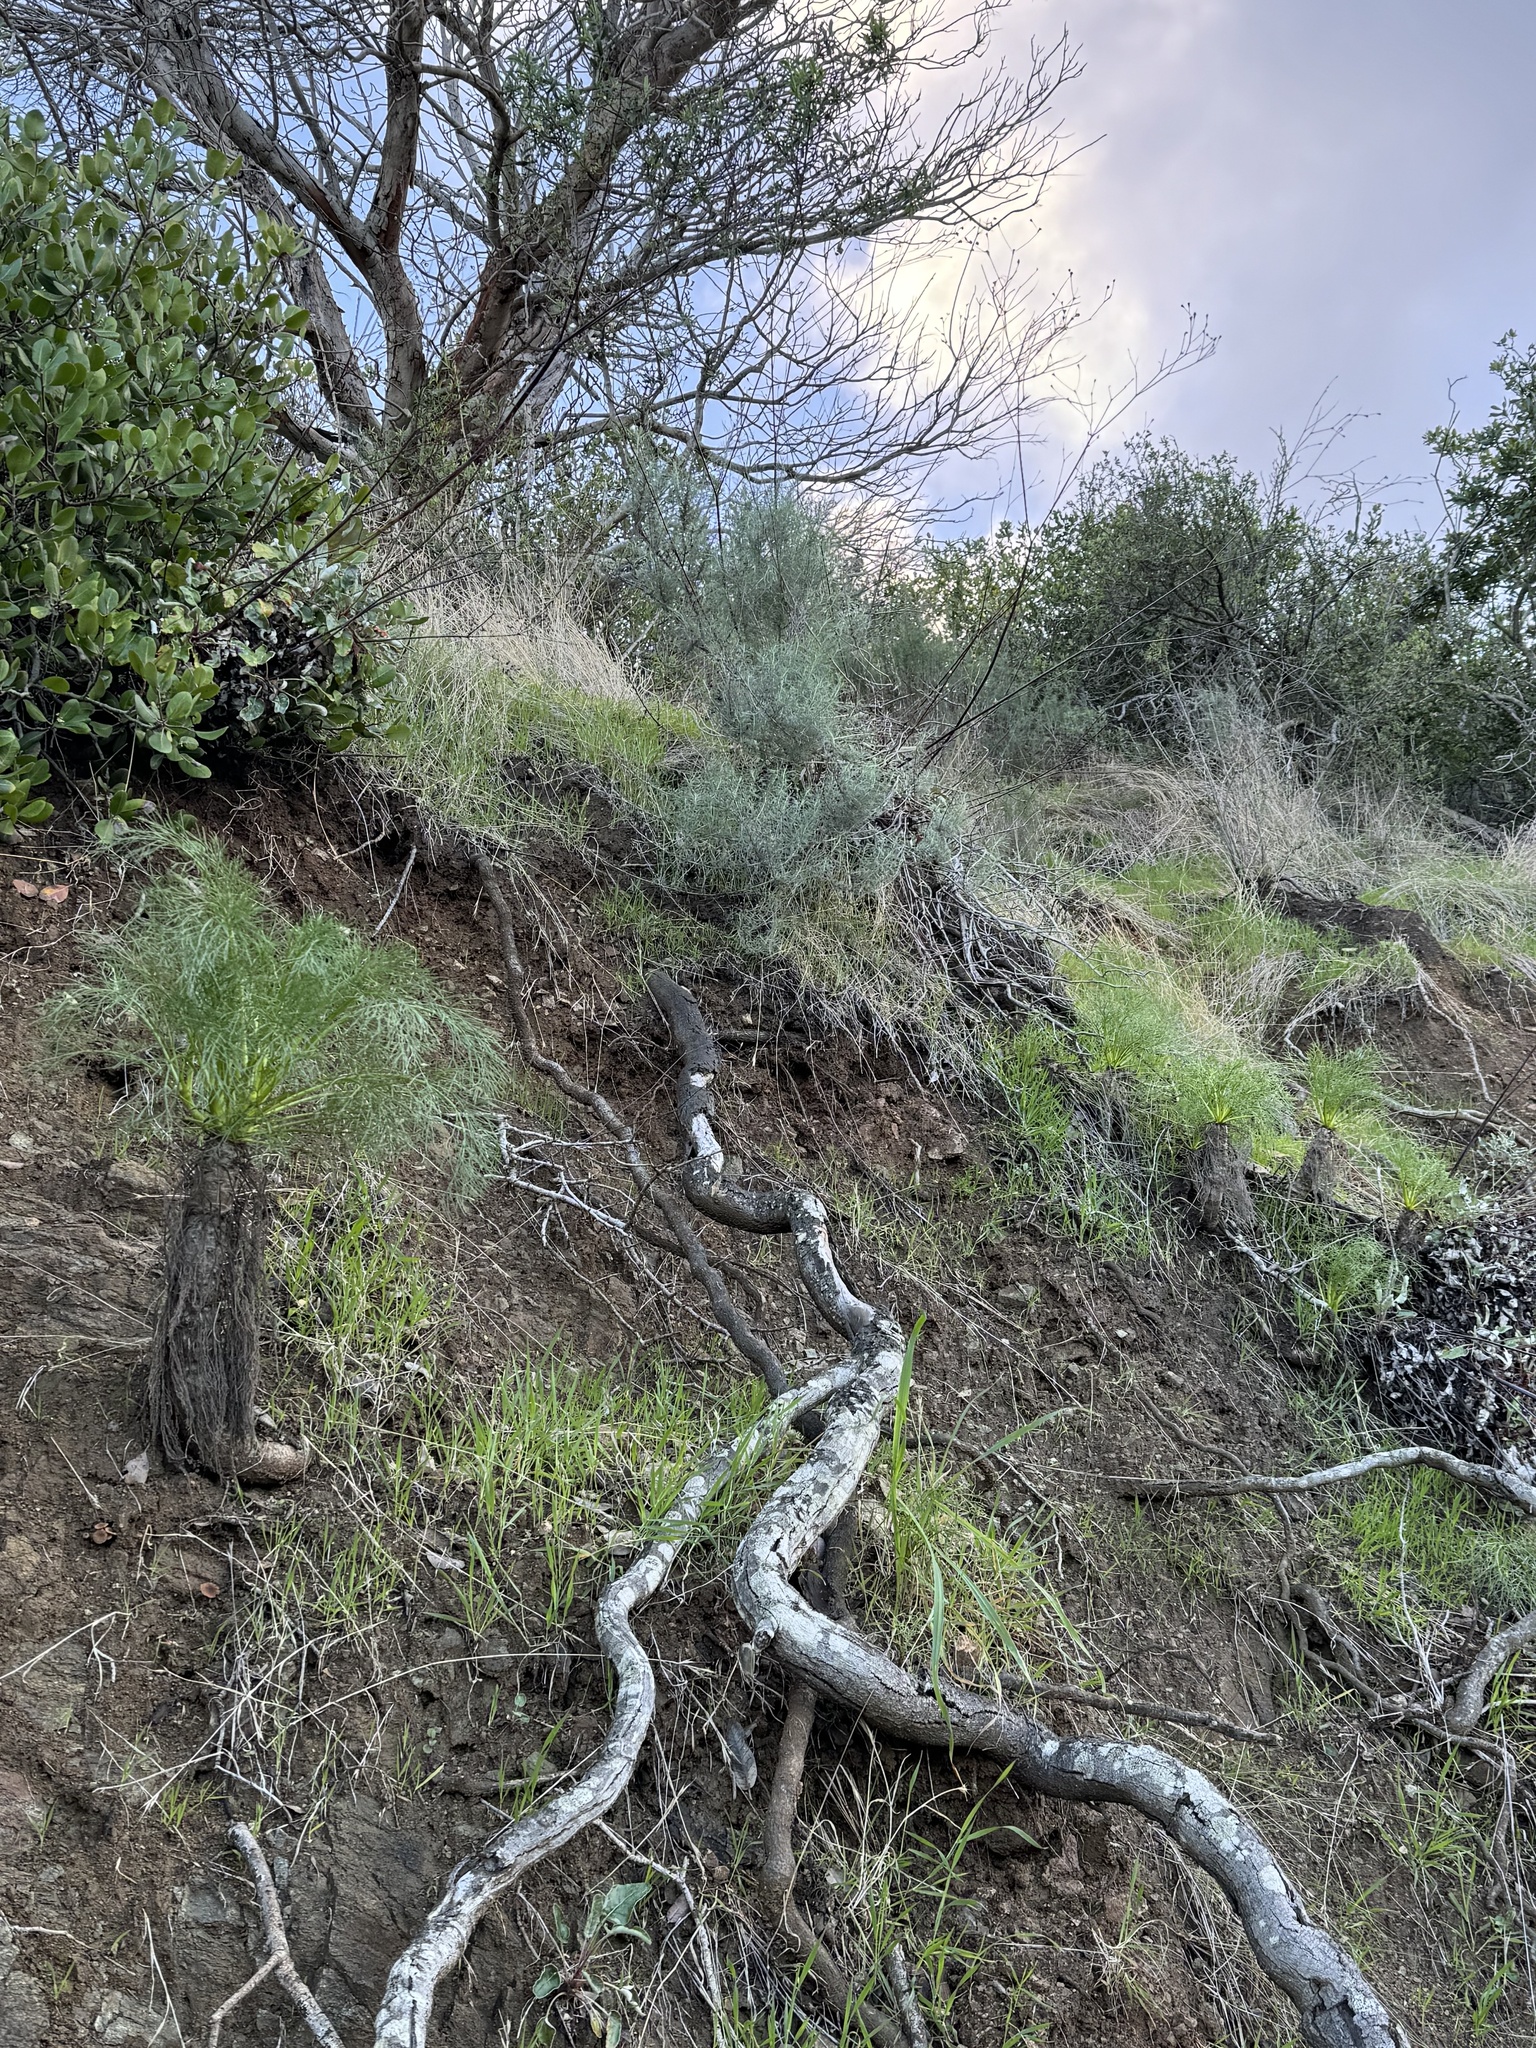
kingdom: Plantae
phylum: Tracheophyta
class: Magnoliopsida
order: Asterales
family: Asteraceae
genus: Coreopsis
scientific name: Coreopsis gigantea
